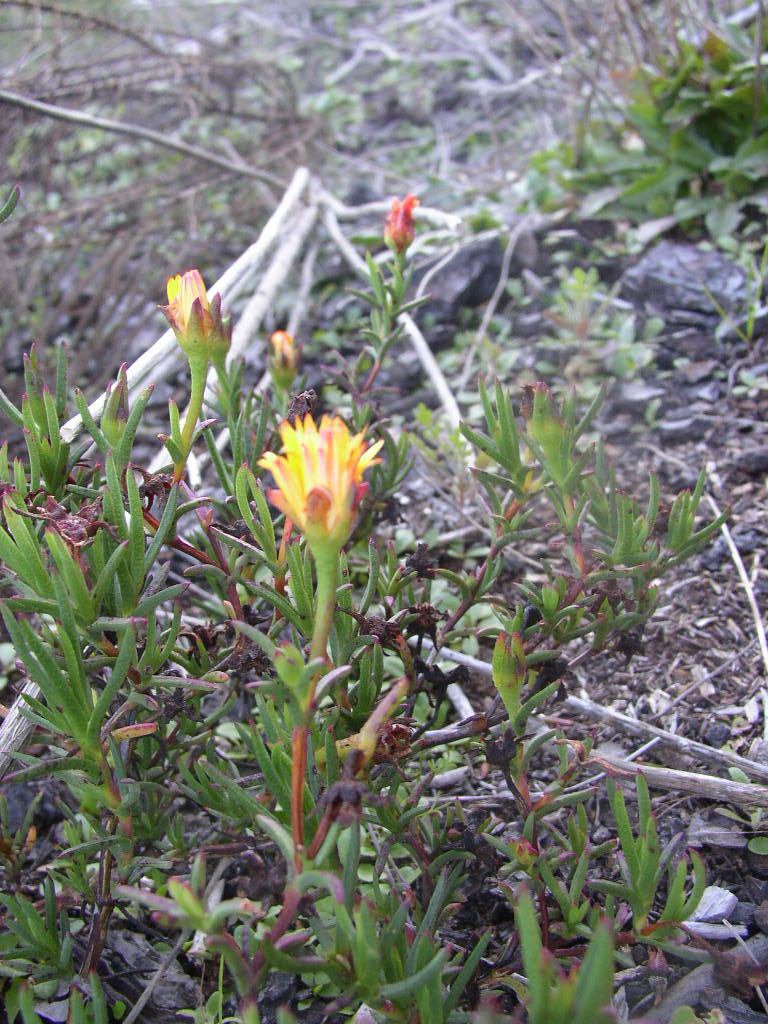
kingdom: Plantae
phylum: Tracheophyta
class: Magnoliopsida
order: Caryophyllales
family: Aizoaceae
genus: Lampranthus
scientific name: Lampranthus bicolor
